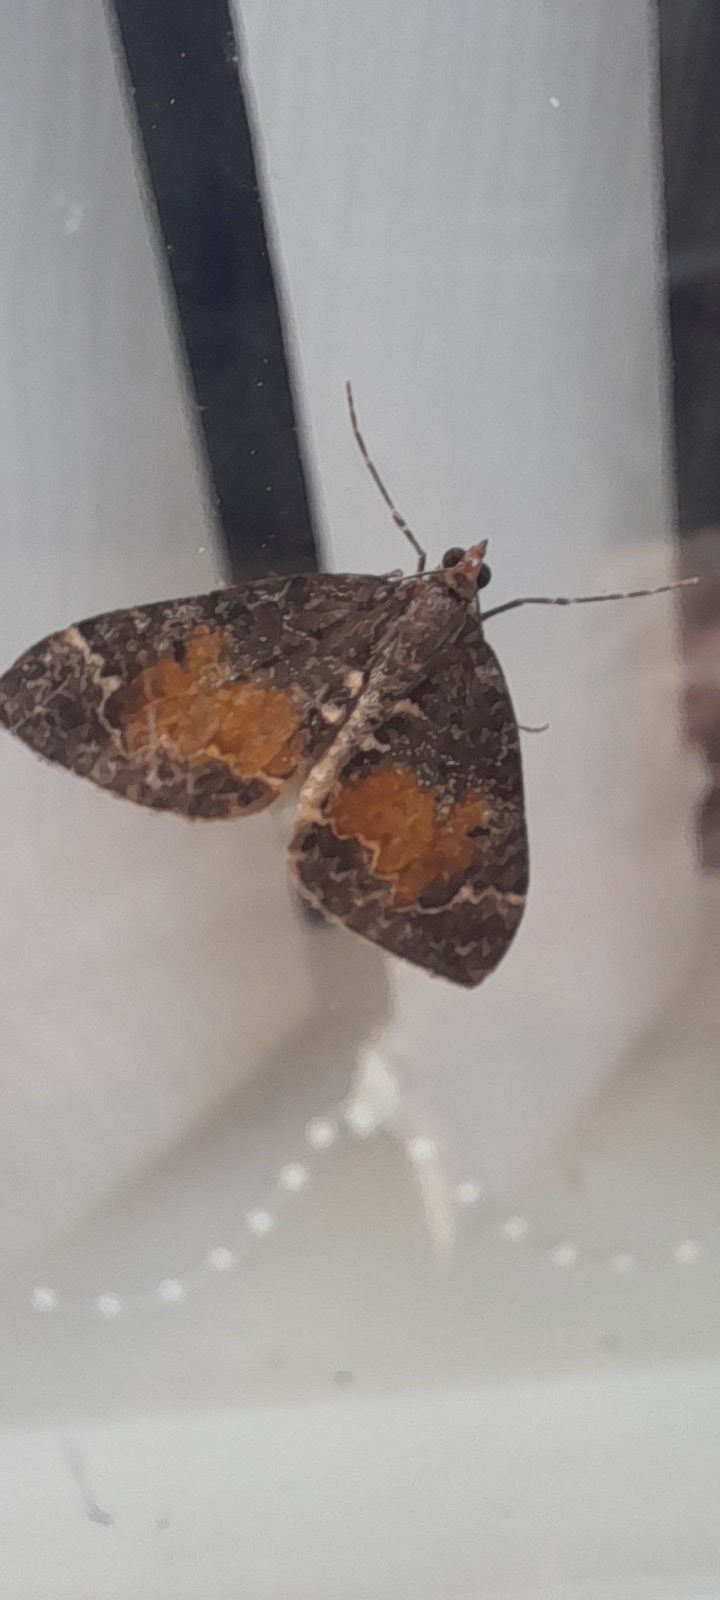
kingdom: Animalia
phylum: Arthropoda
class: Insecta
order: Lepidoptera
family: Geometridae
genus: Dysstroma
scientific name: Dysstroma truncata
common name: Common marbled carpet
